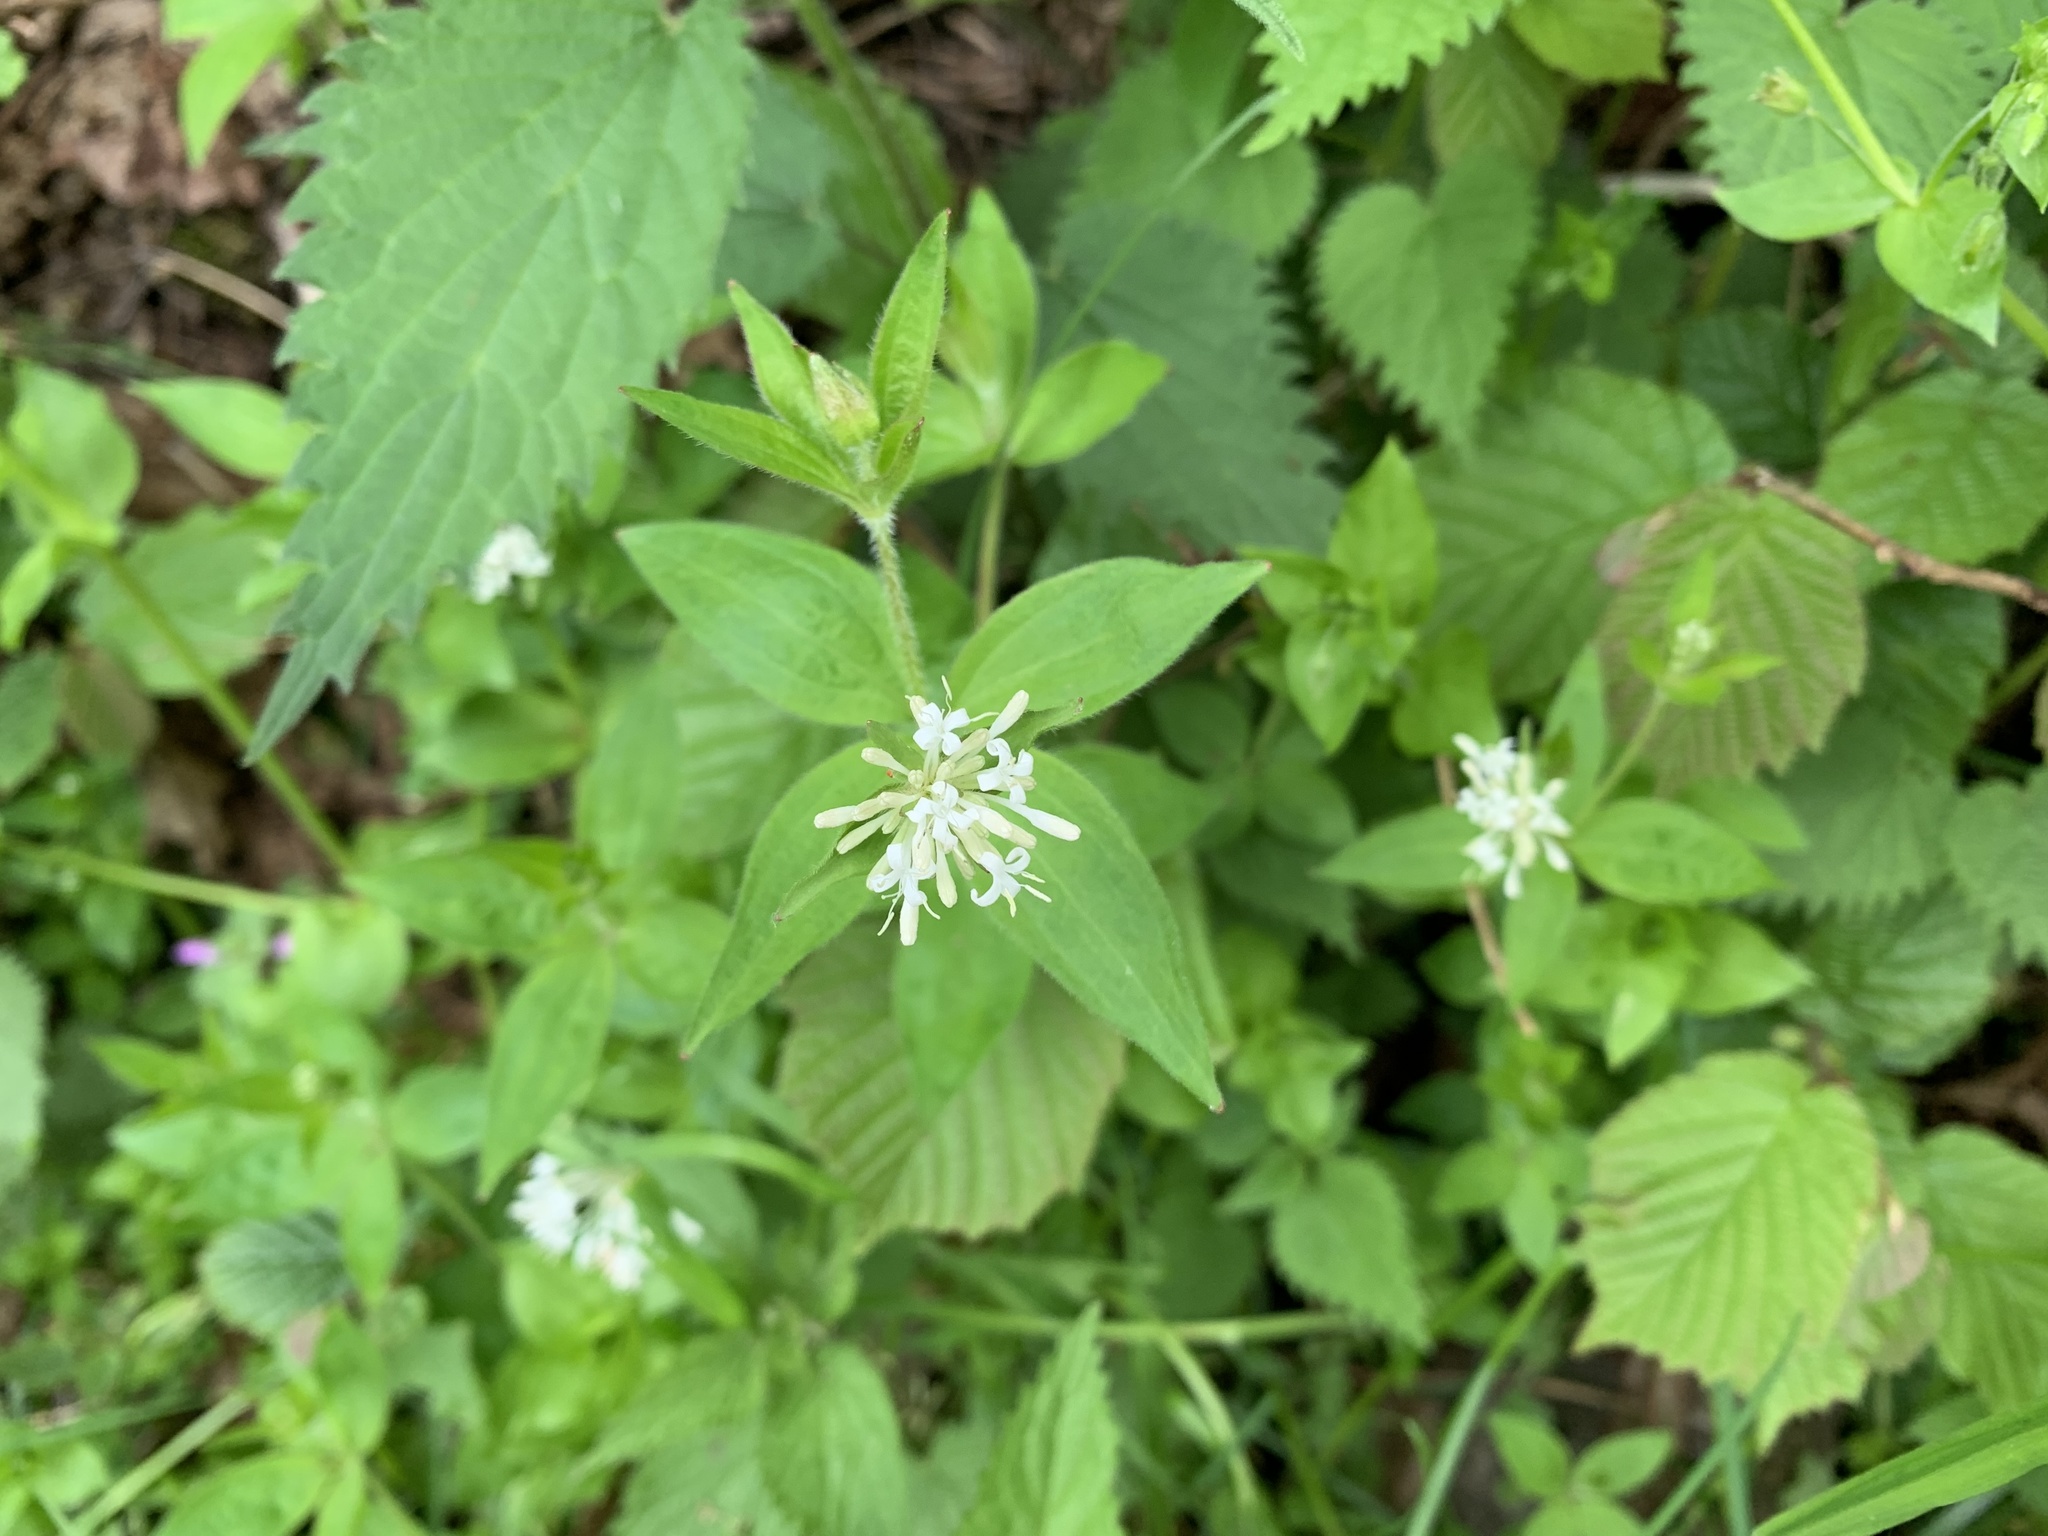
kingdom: Plantae
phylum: Tracheophyta
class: Magnoliopsida
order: Gentianales
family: Rubiaceae
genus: Asperula
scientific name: Asperula taurina
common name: Pink woodruff
